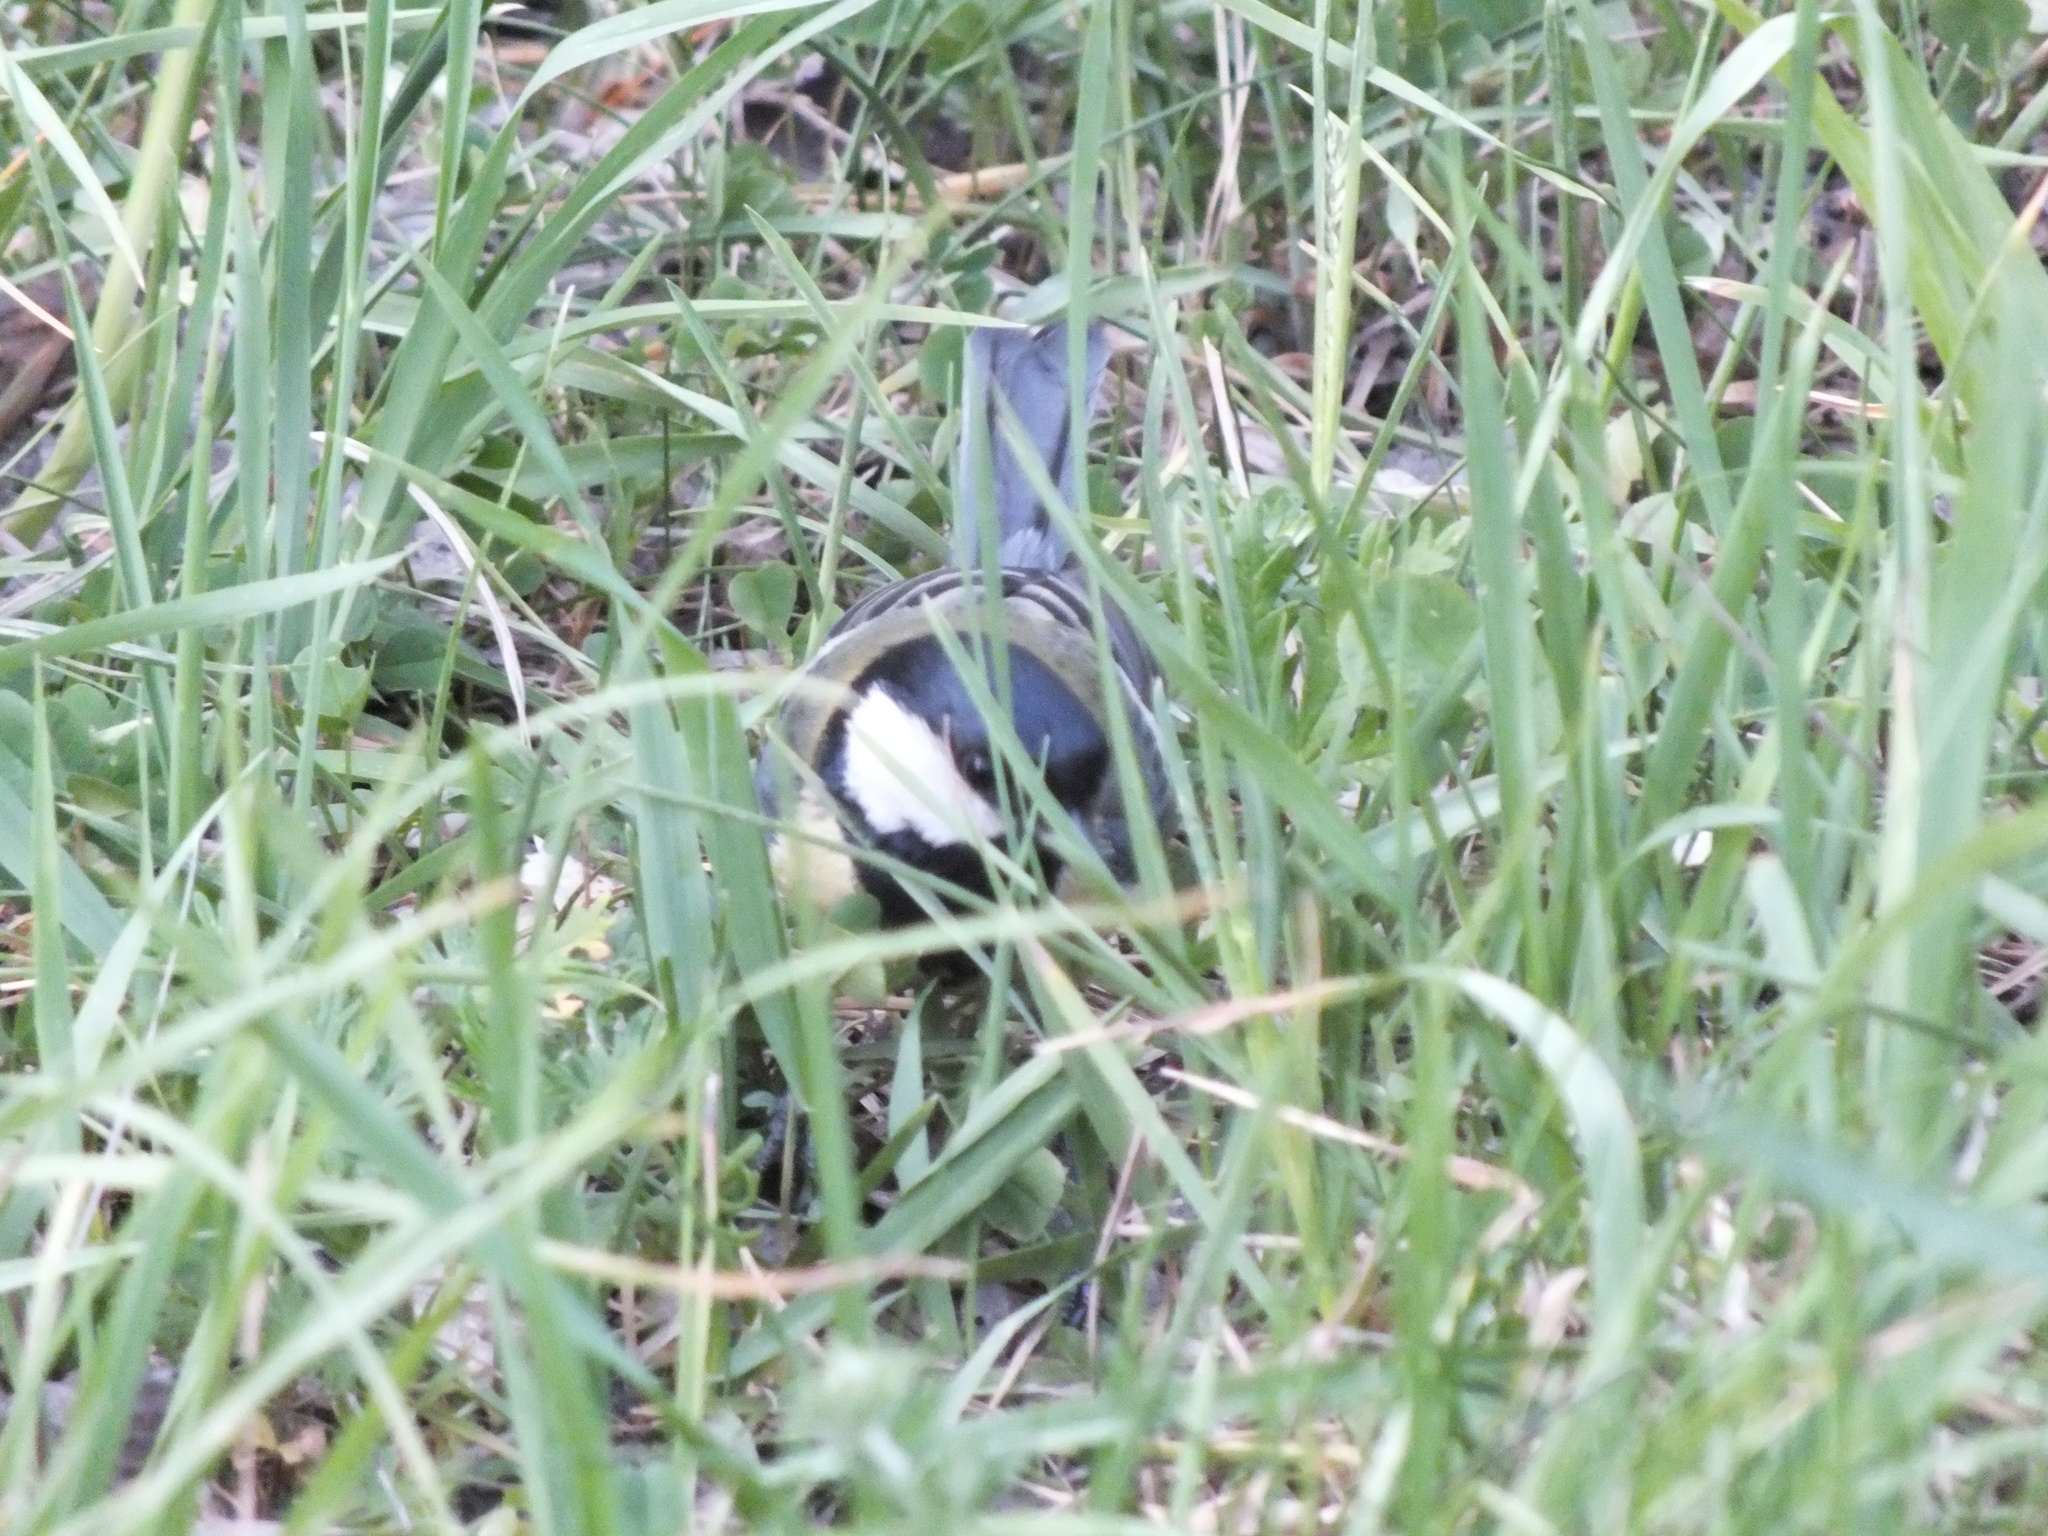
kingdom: Animalia
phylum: Chordata
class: Aves
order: Passeriformes
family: Paridae
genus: Parus
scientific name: Parus major
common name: Great tit
